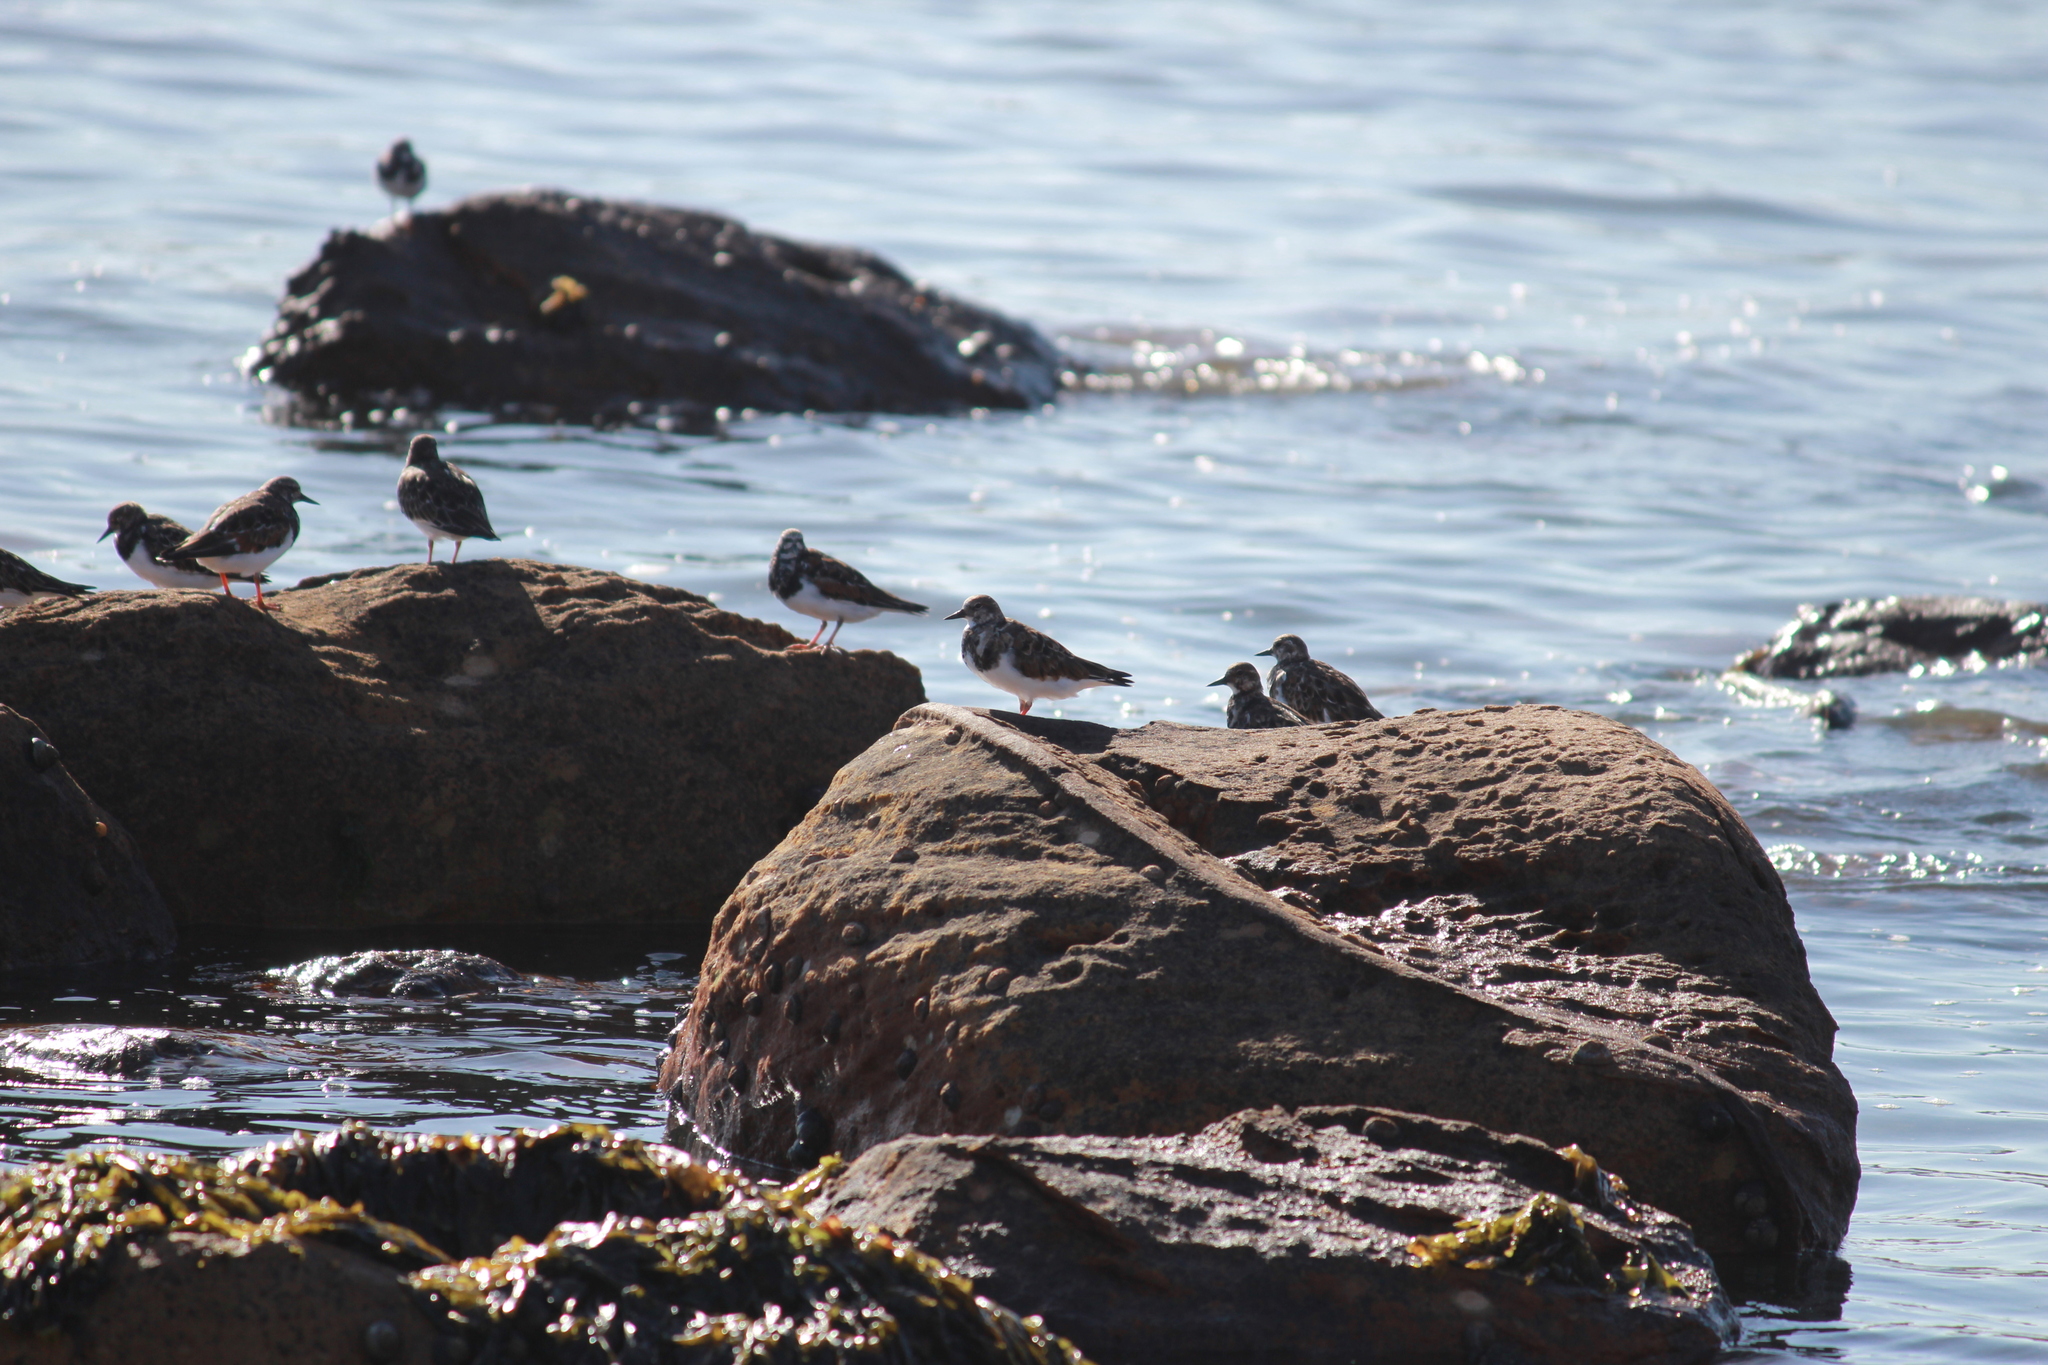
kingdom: Animalia
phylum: Chordata
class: Aves
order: Charadriiformes
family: Scolopacidae
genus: Arenaria
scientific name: Arenaria interpres
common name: Ruddy turnstone
